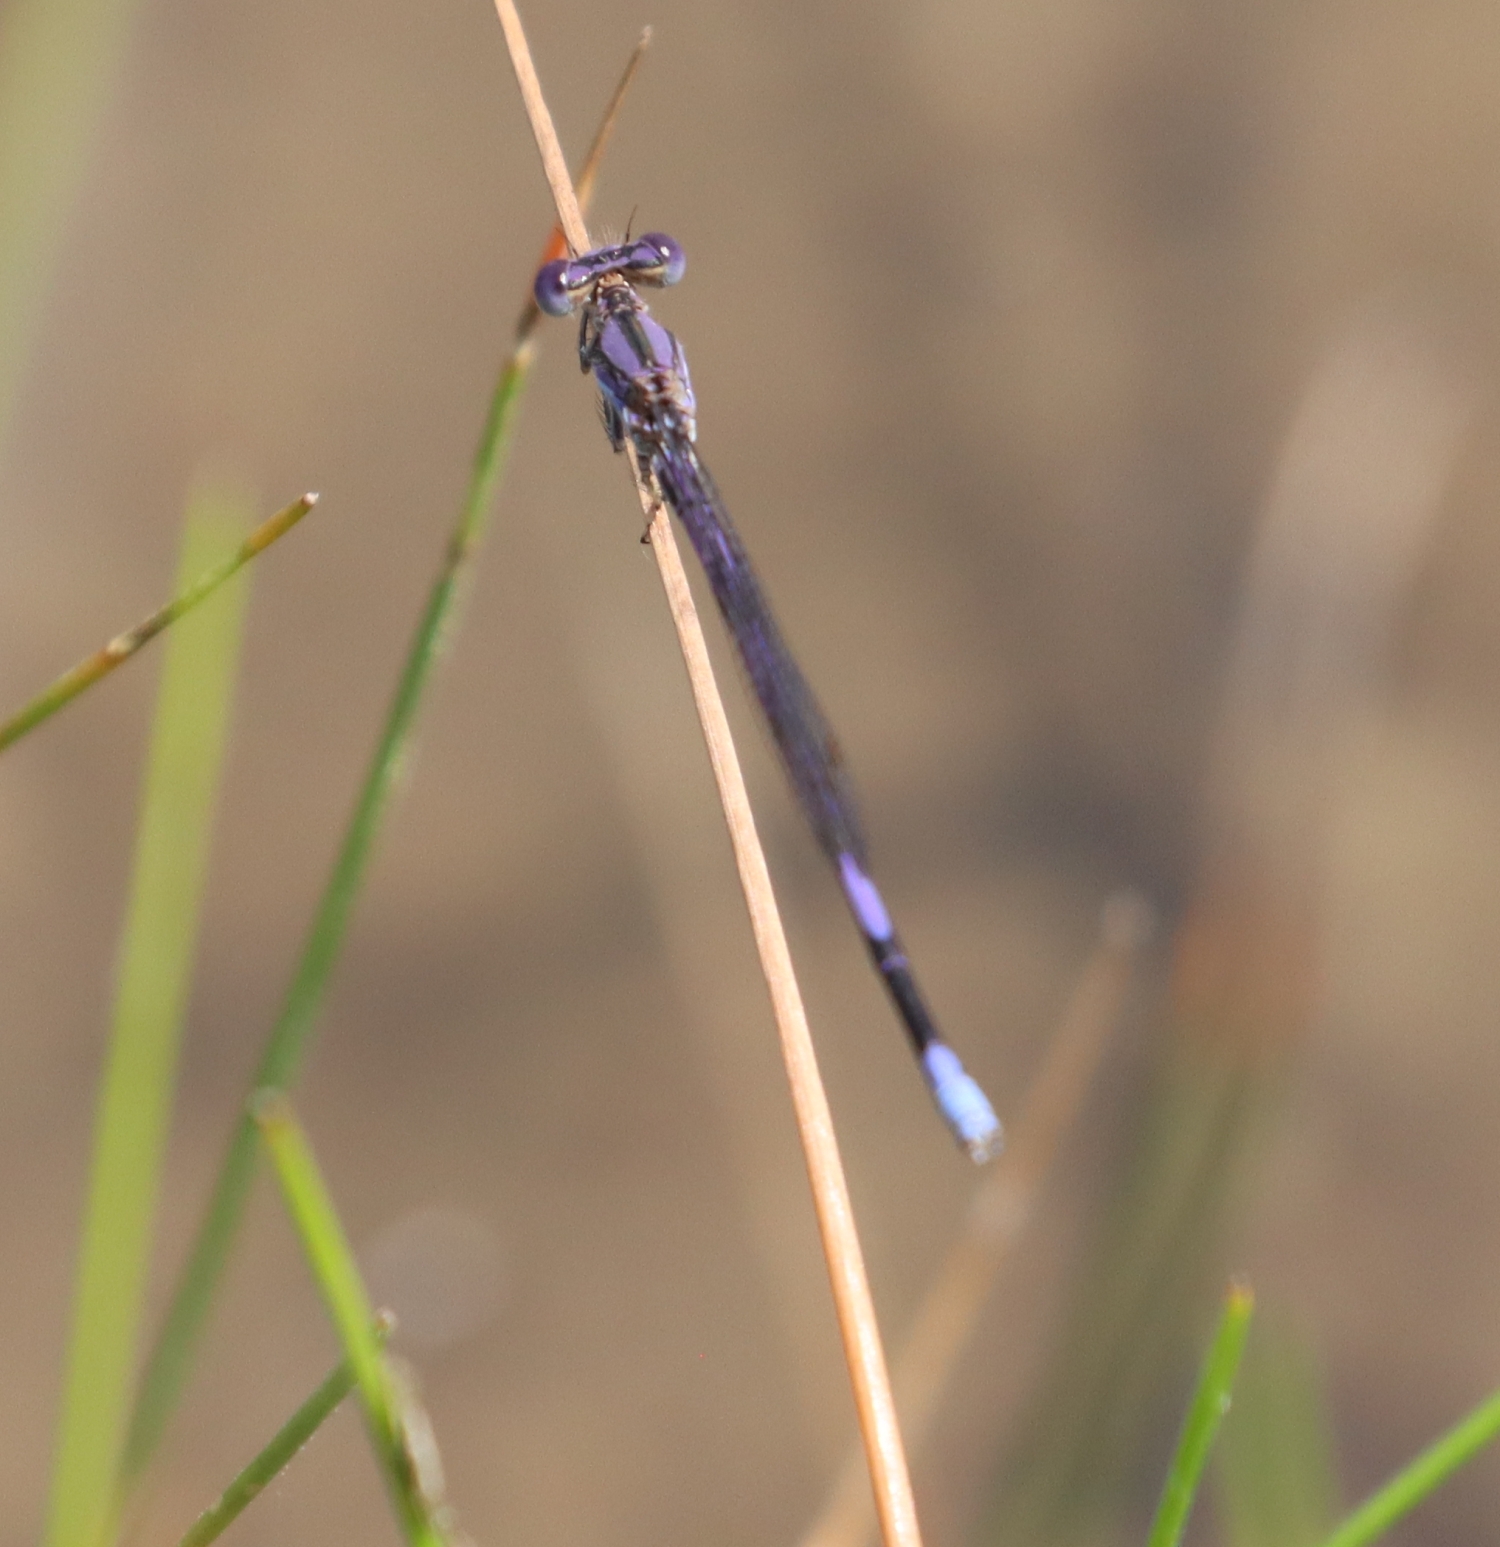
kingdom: Animalia
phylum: Arthropoda
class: Insecta
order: Odonata
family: Coenagrionidae
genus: Argia
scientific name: Argia fumipennis
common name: Variable dancer
